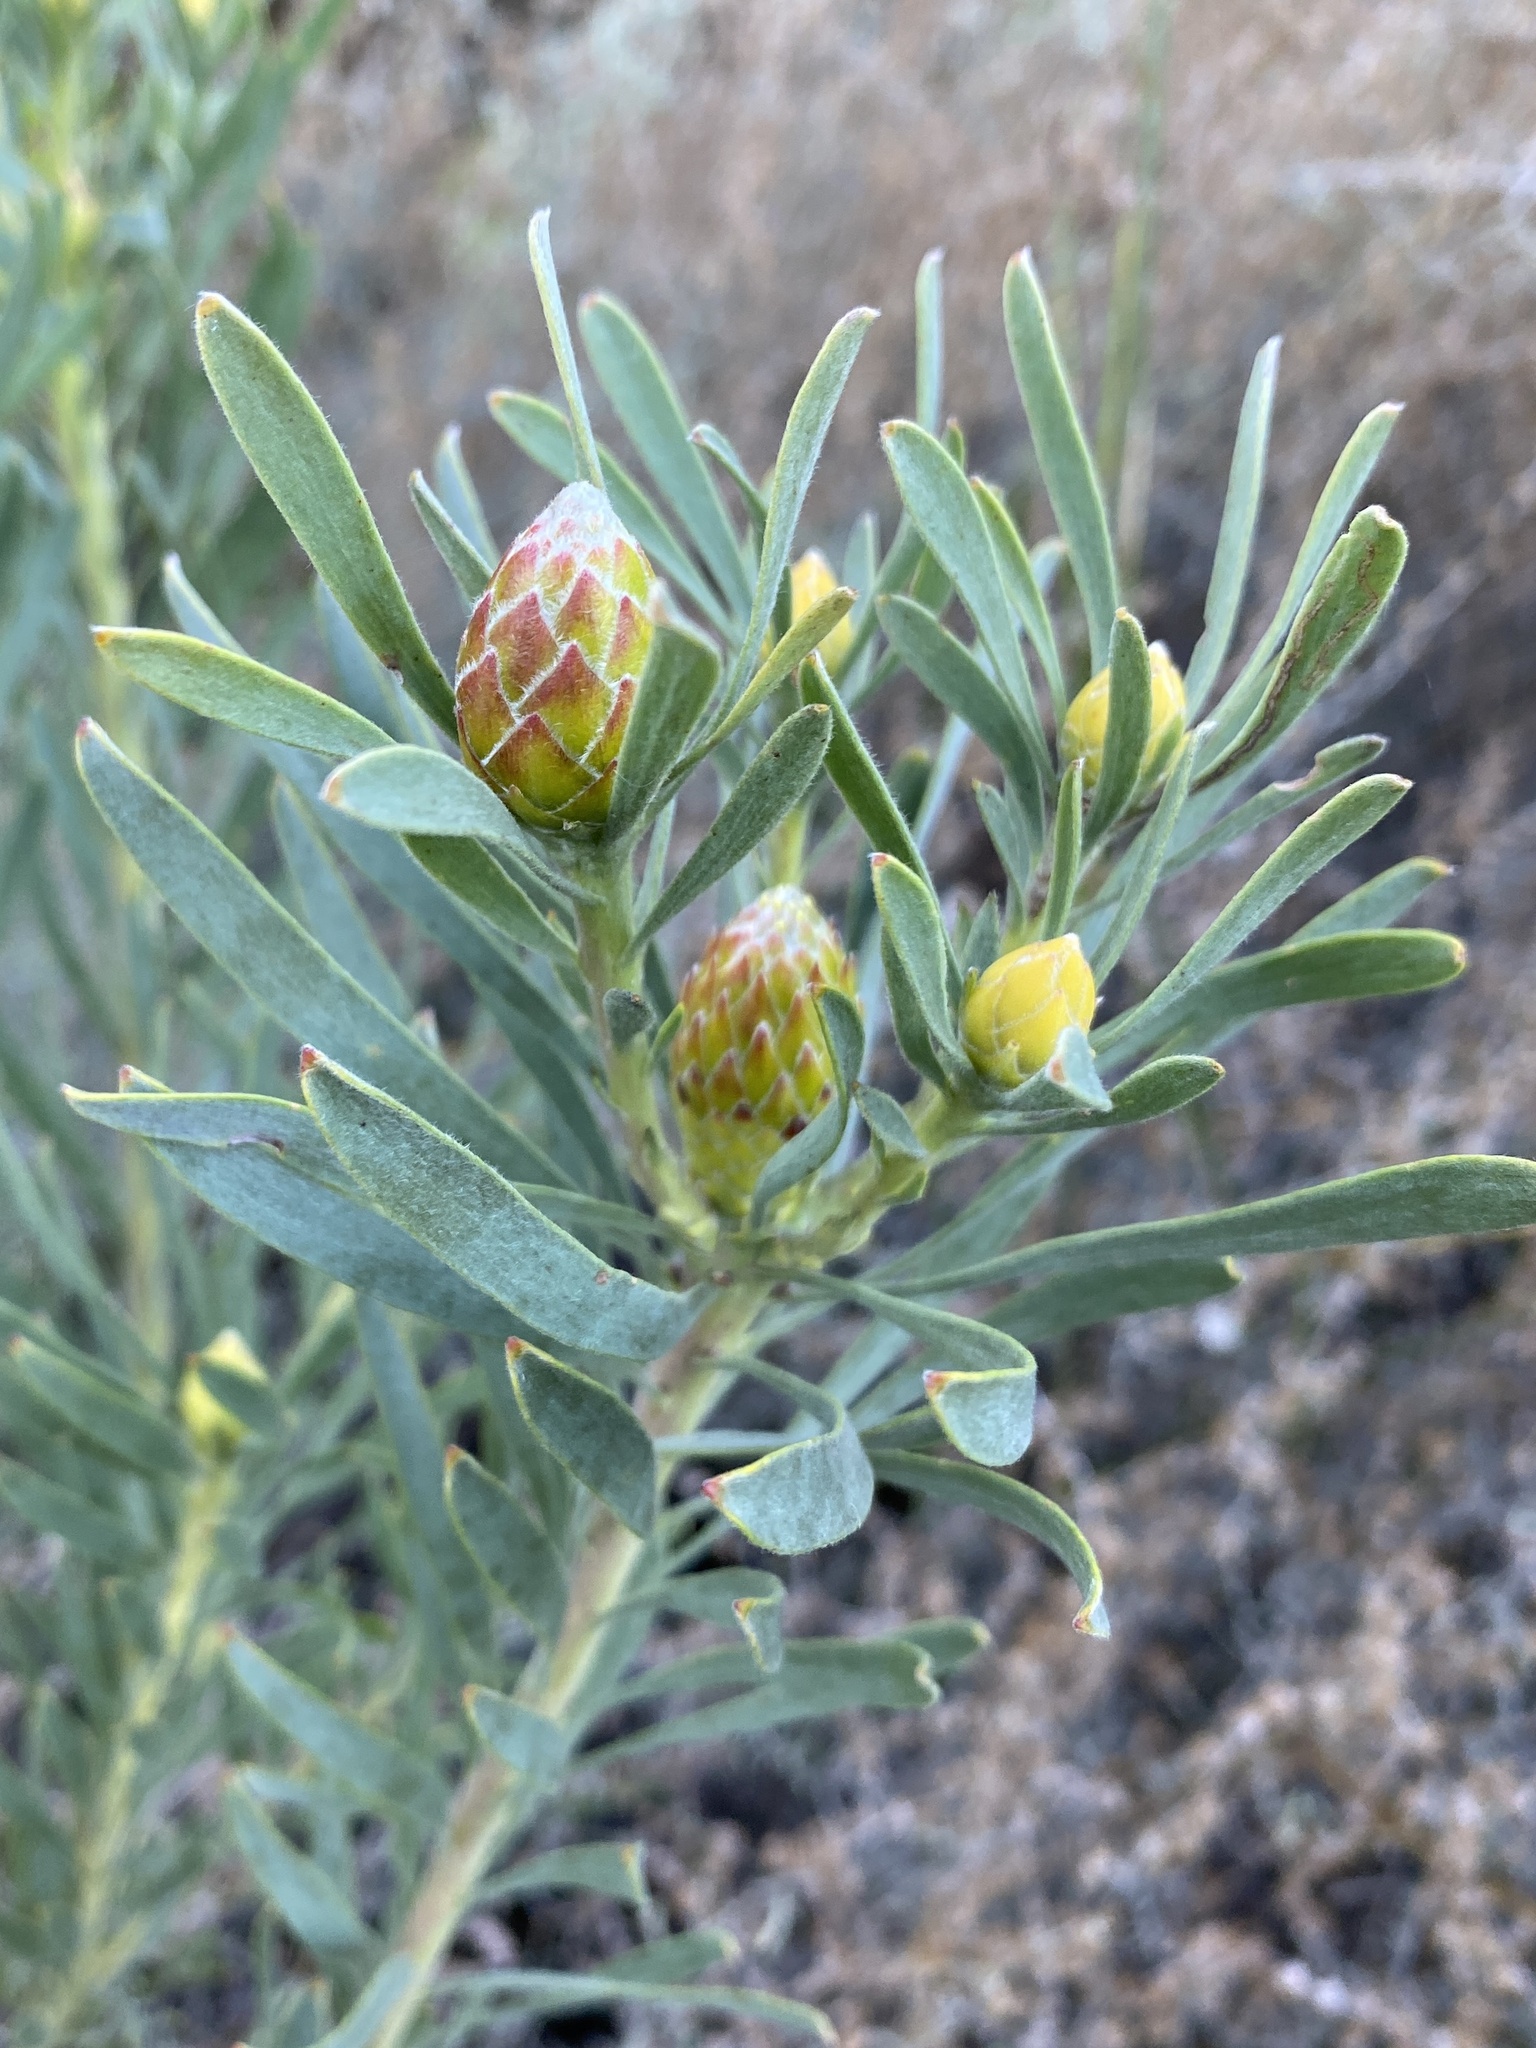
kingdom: Plantae
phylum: Tracheophyta
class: Magnoliopsida
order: Proteales
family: Proteaceae
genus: Leucadendron
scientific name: Leucadendron rubrum
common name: Spinning top
